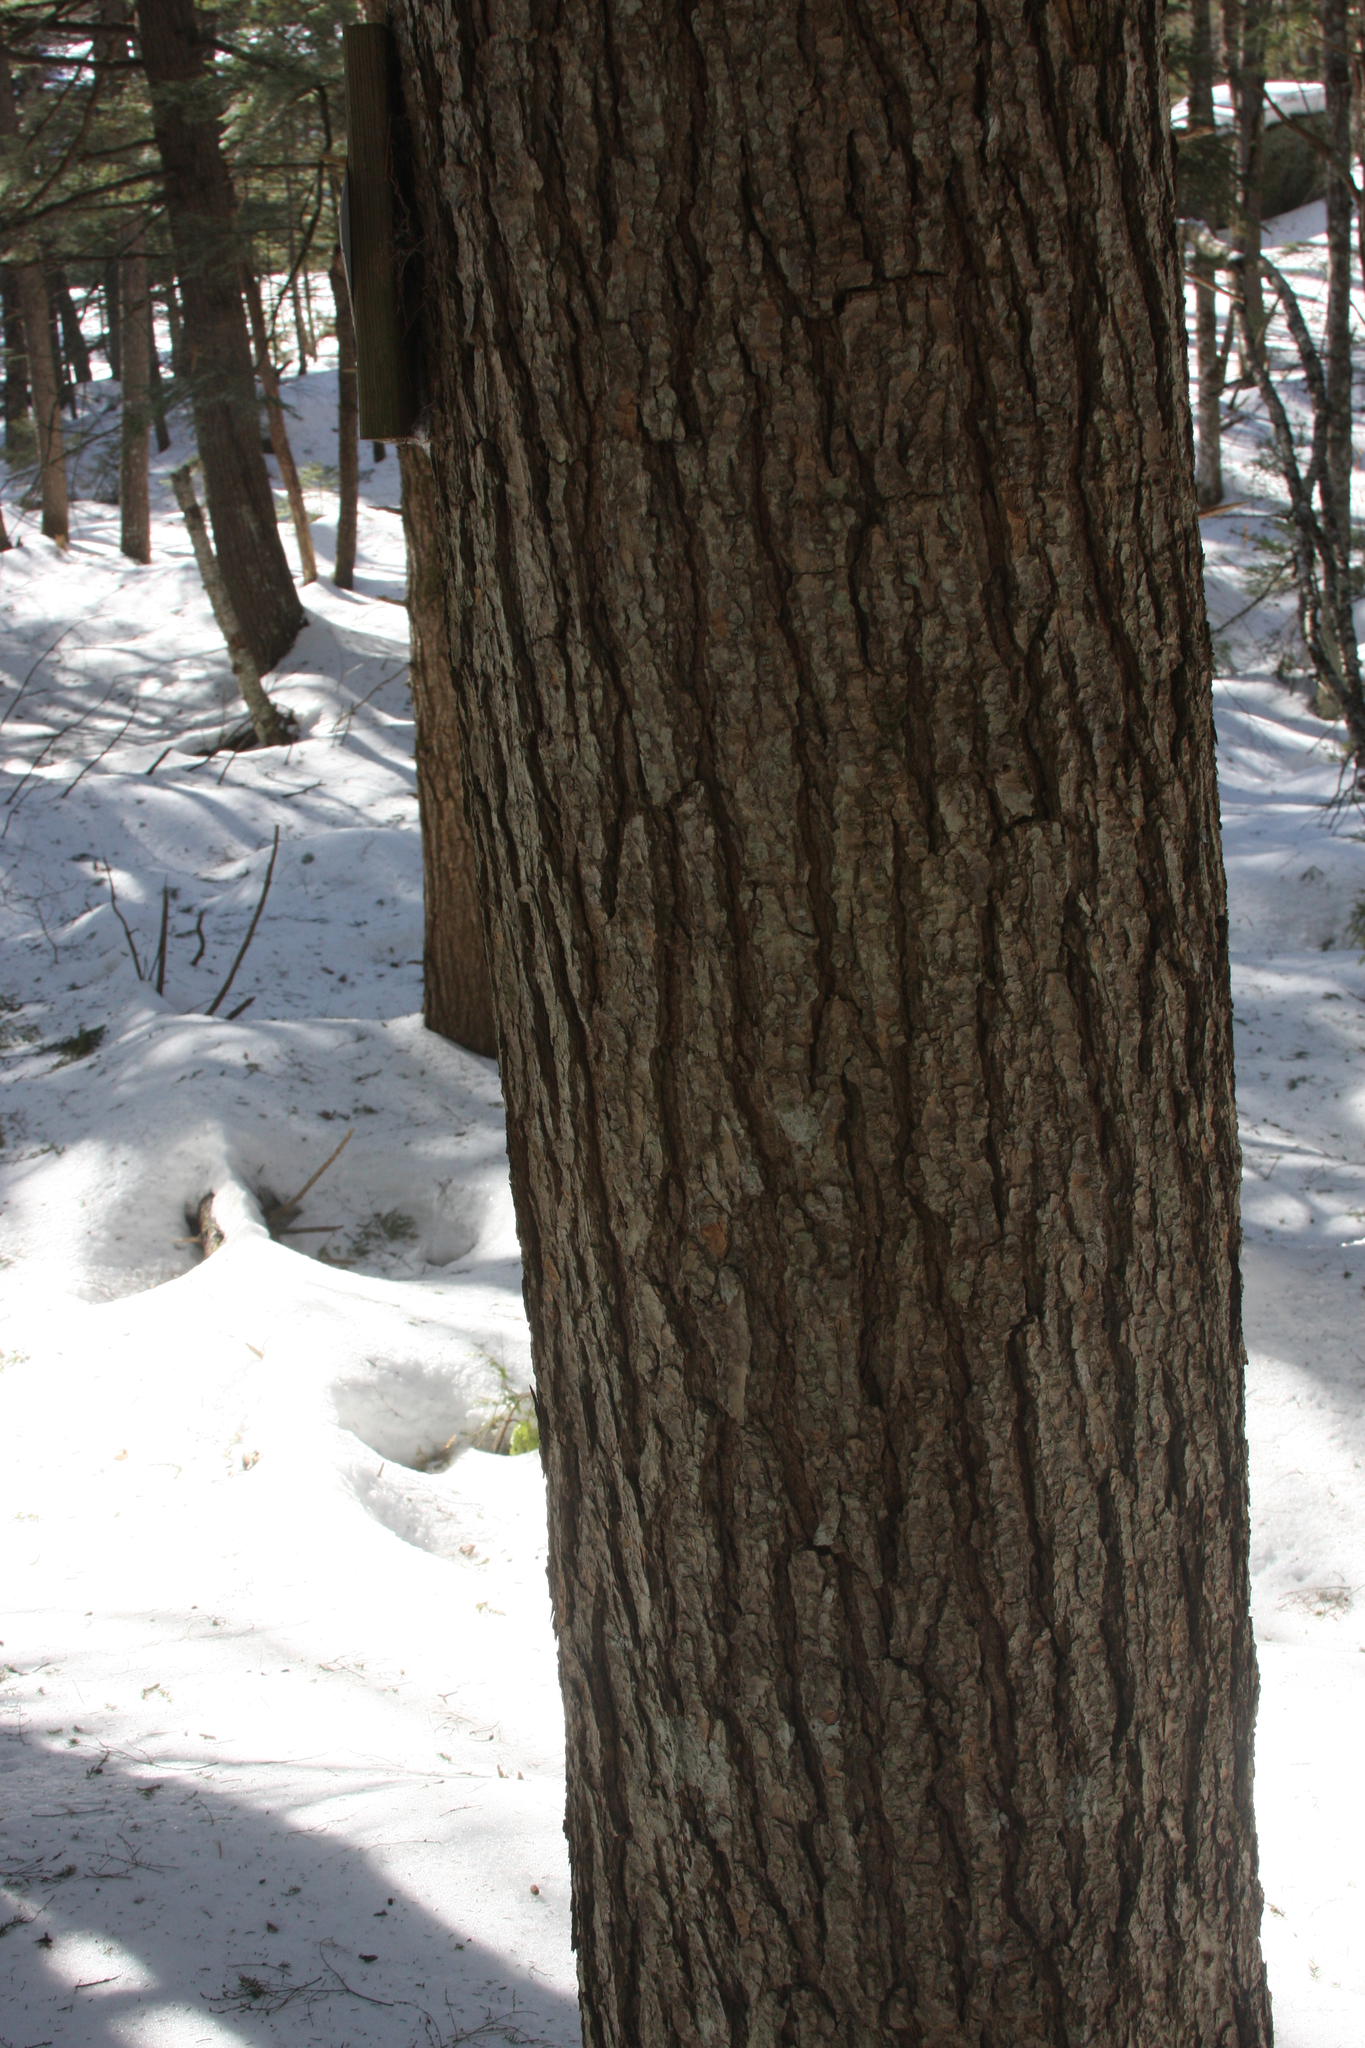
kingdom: Plantae
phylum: Tracheophyta
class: Pinopsida
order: Pinales
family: Pinaceae
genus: Tsuga
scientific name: Tsuga canadensis
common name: Eastern hemlock
